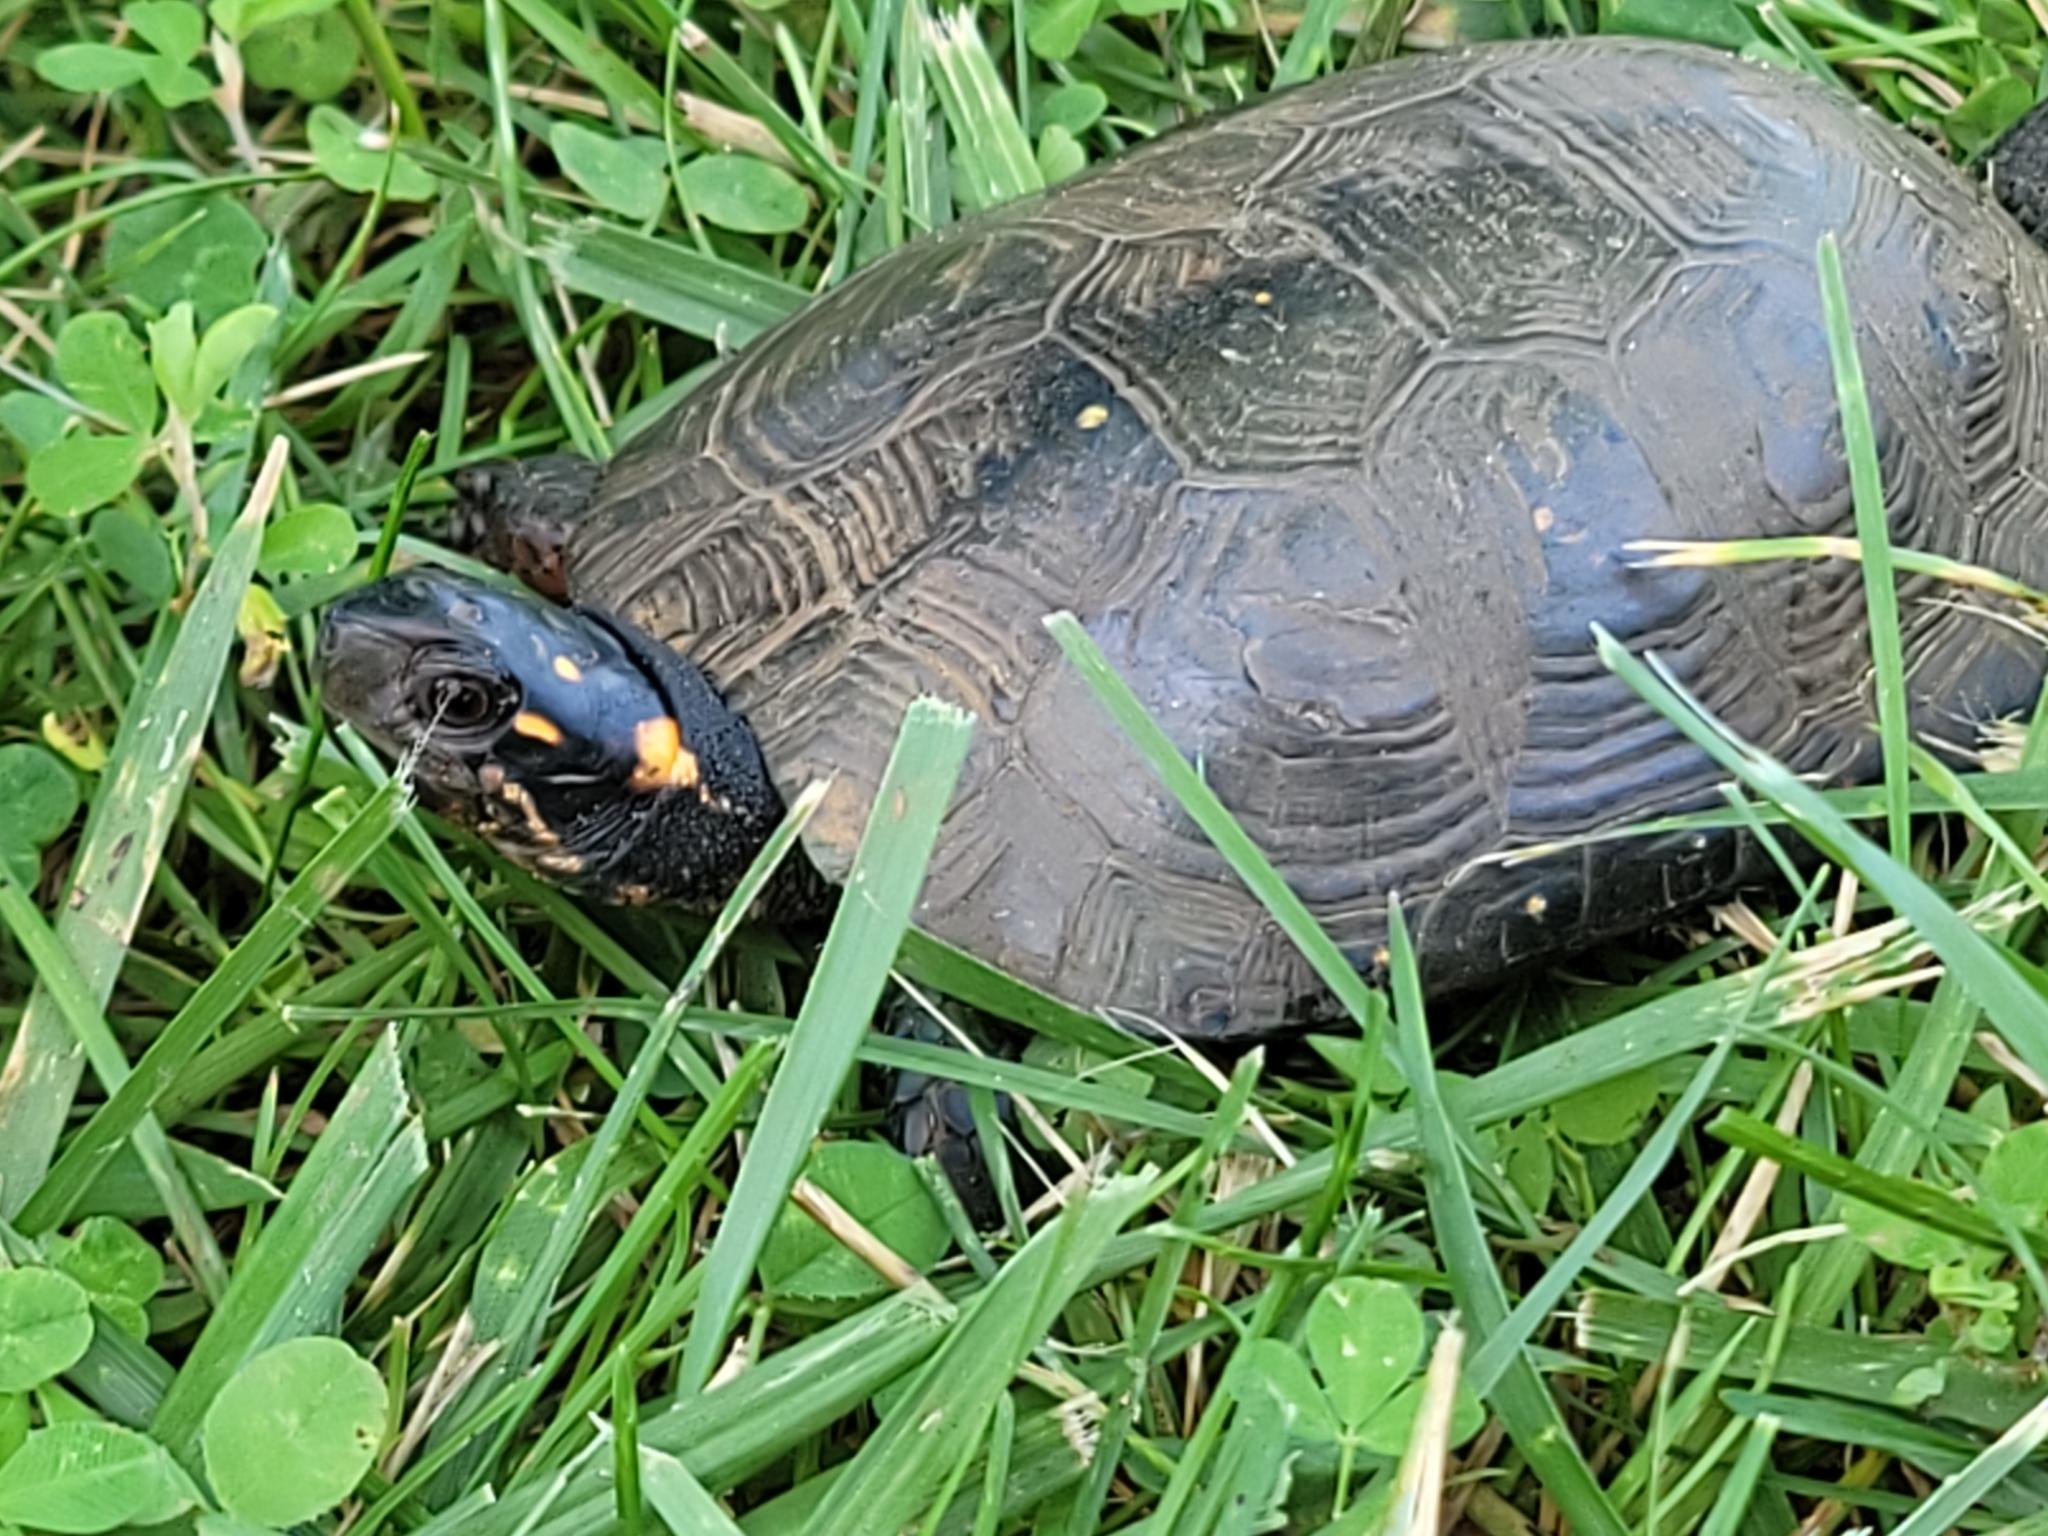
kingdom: Animalia
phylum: Chordata
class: Testudines
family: Emydidae
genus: Clemmys
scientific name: Clemmys guttata
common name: Spotted turtle
